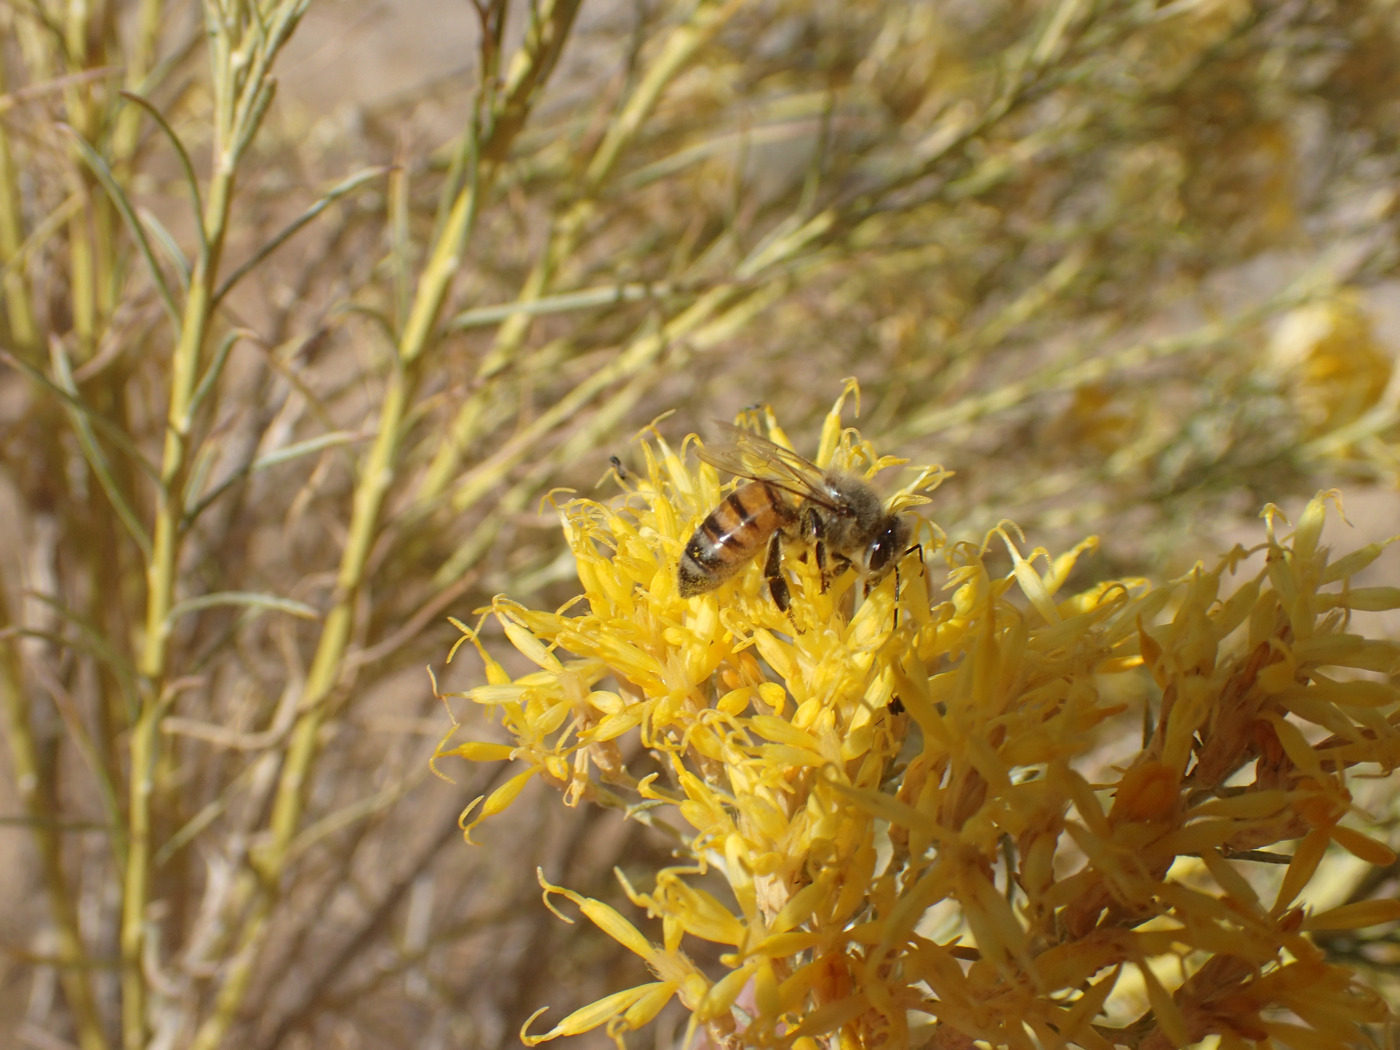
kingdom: Animalia
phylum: Arthropoda
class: Insecta
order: Hymenoptera
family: Apidae
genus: Apis
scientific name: Apis mellifera
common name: Honey bee
